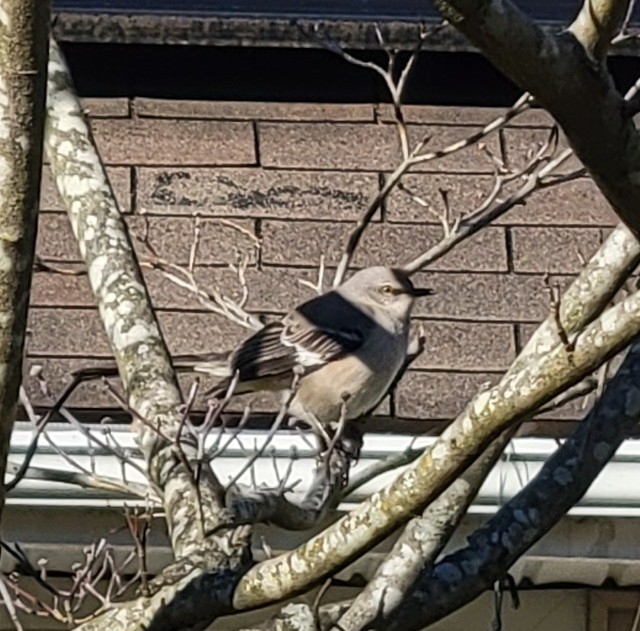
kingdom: Animalia
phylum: Chordata
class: Aves
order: Passeriformes
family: Mimidae
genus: Mimus
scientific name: Mimus polyglottos
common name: Northern mockingbird
